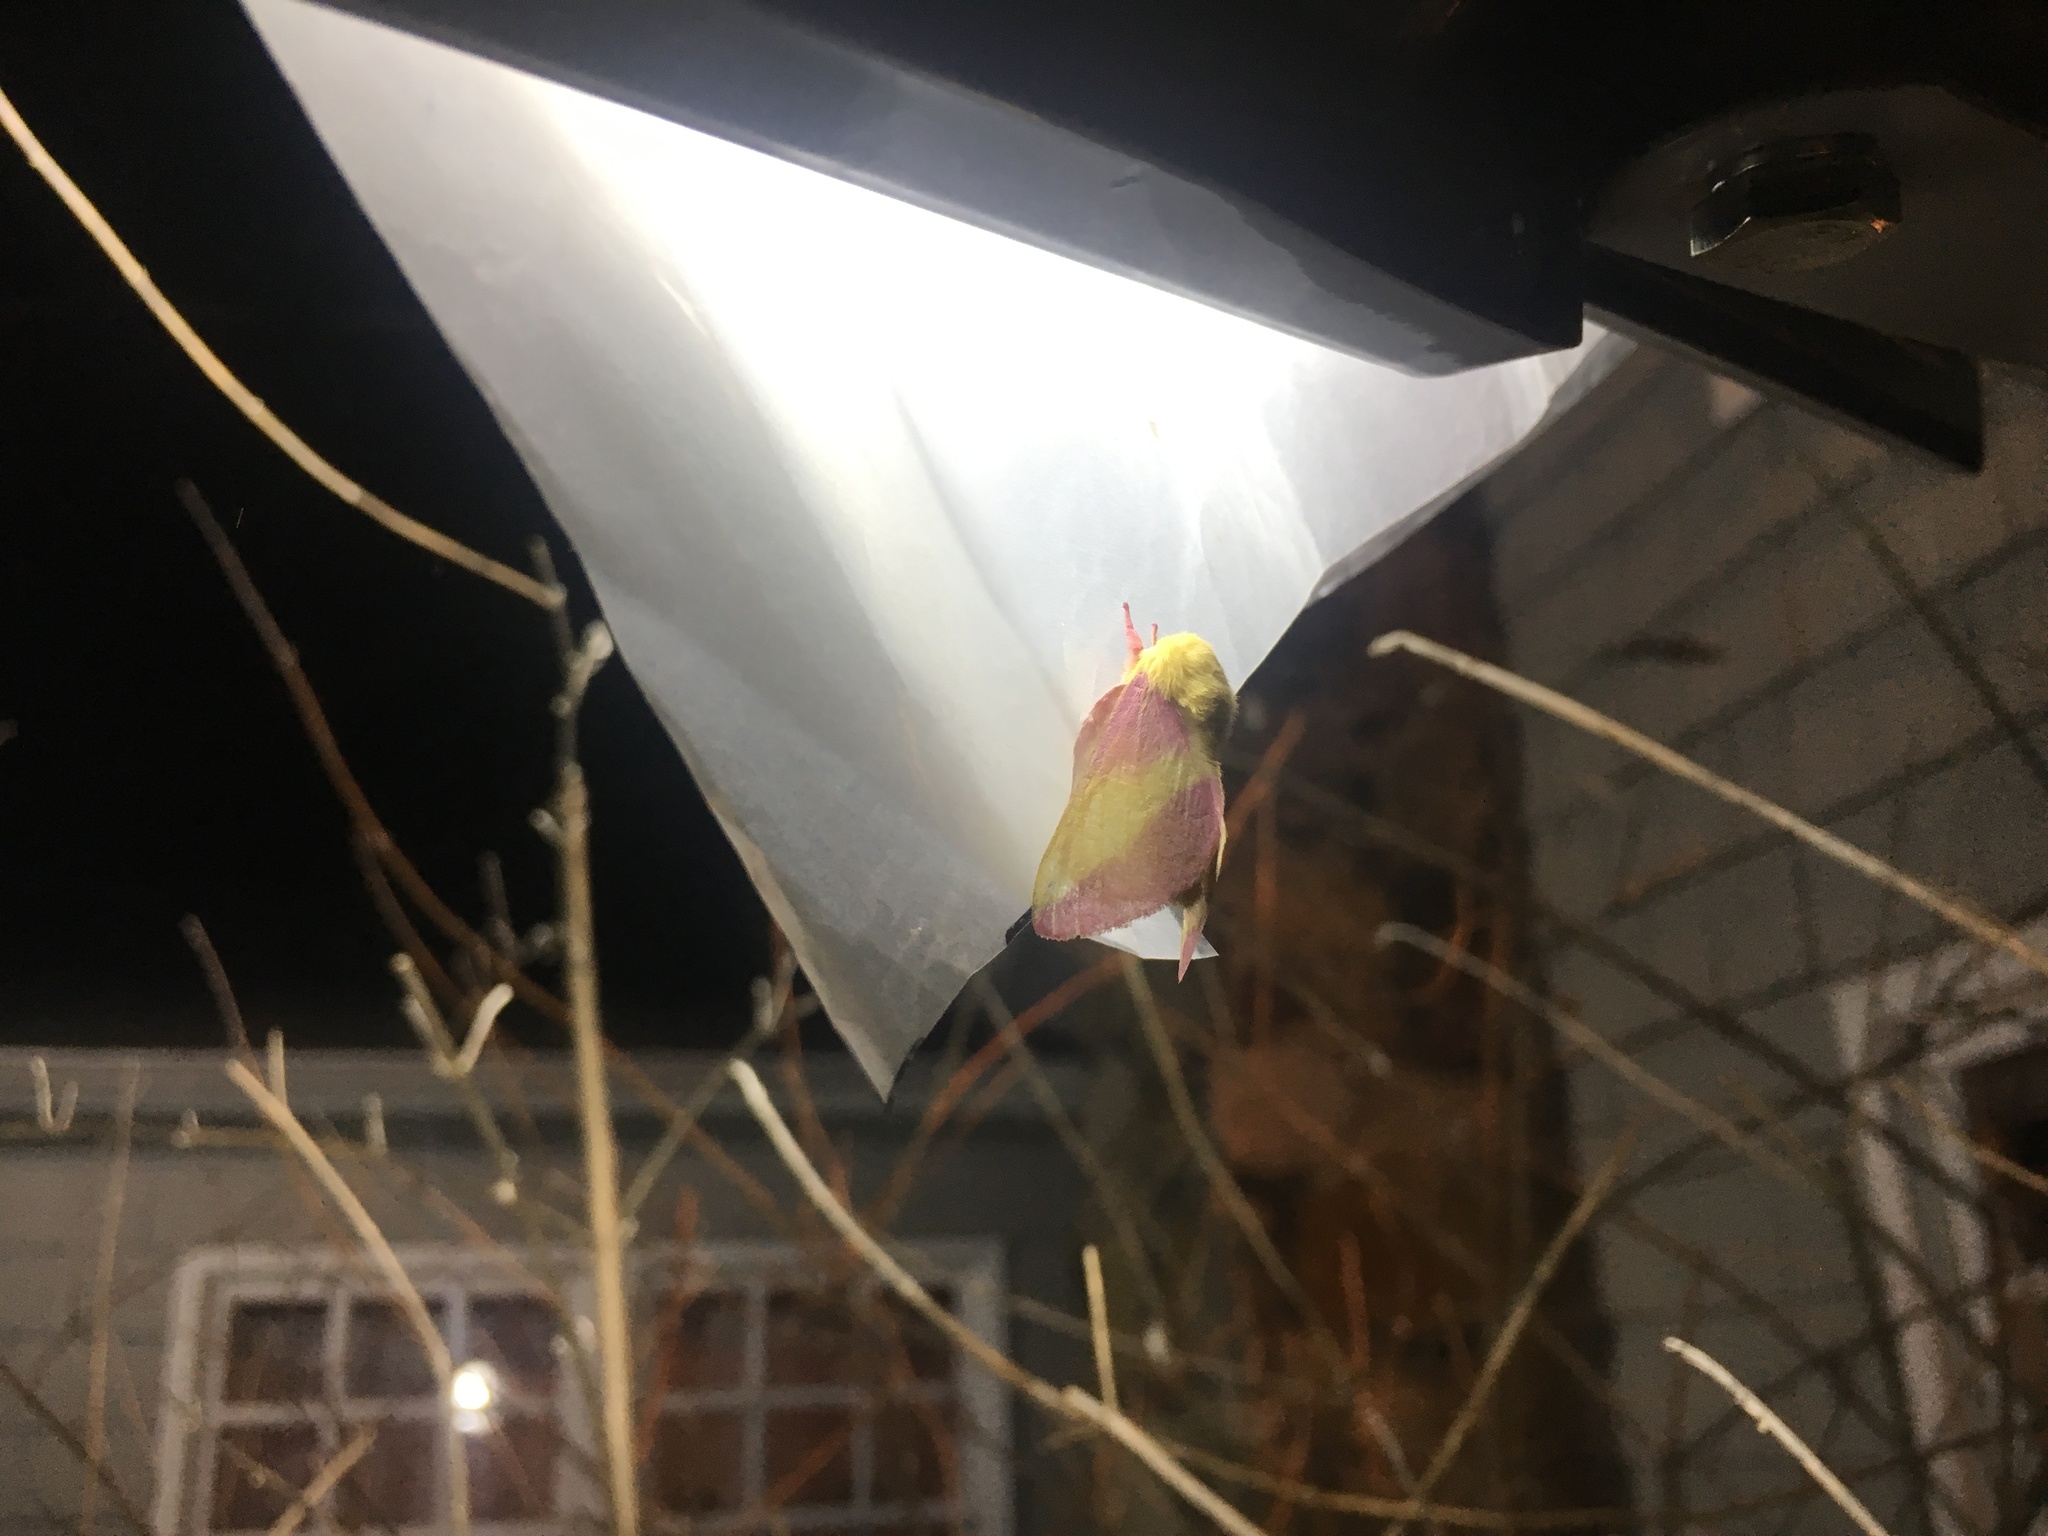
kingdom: Animalia
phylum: Arthropoda
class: Insecta
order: Lepidoptera
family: Saturniidae
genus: Dryocampa
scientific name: Dryocampa rubicunda
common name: Rosy maple moth
